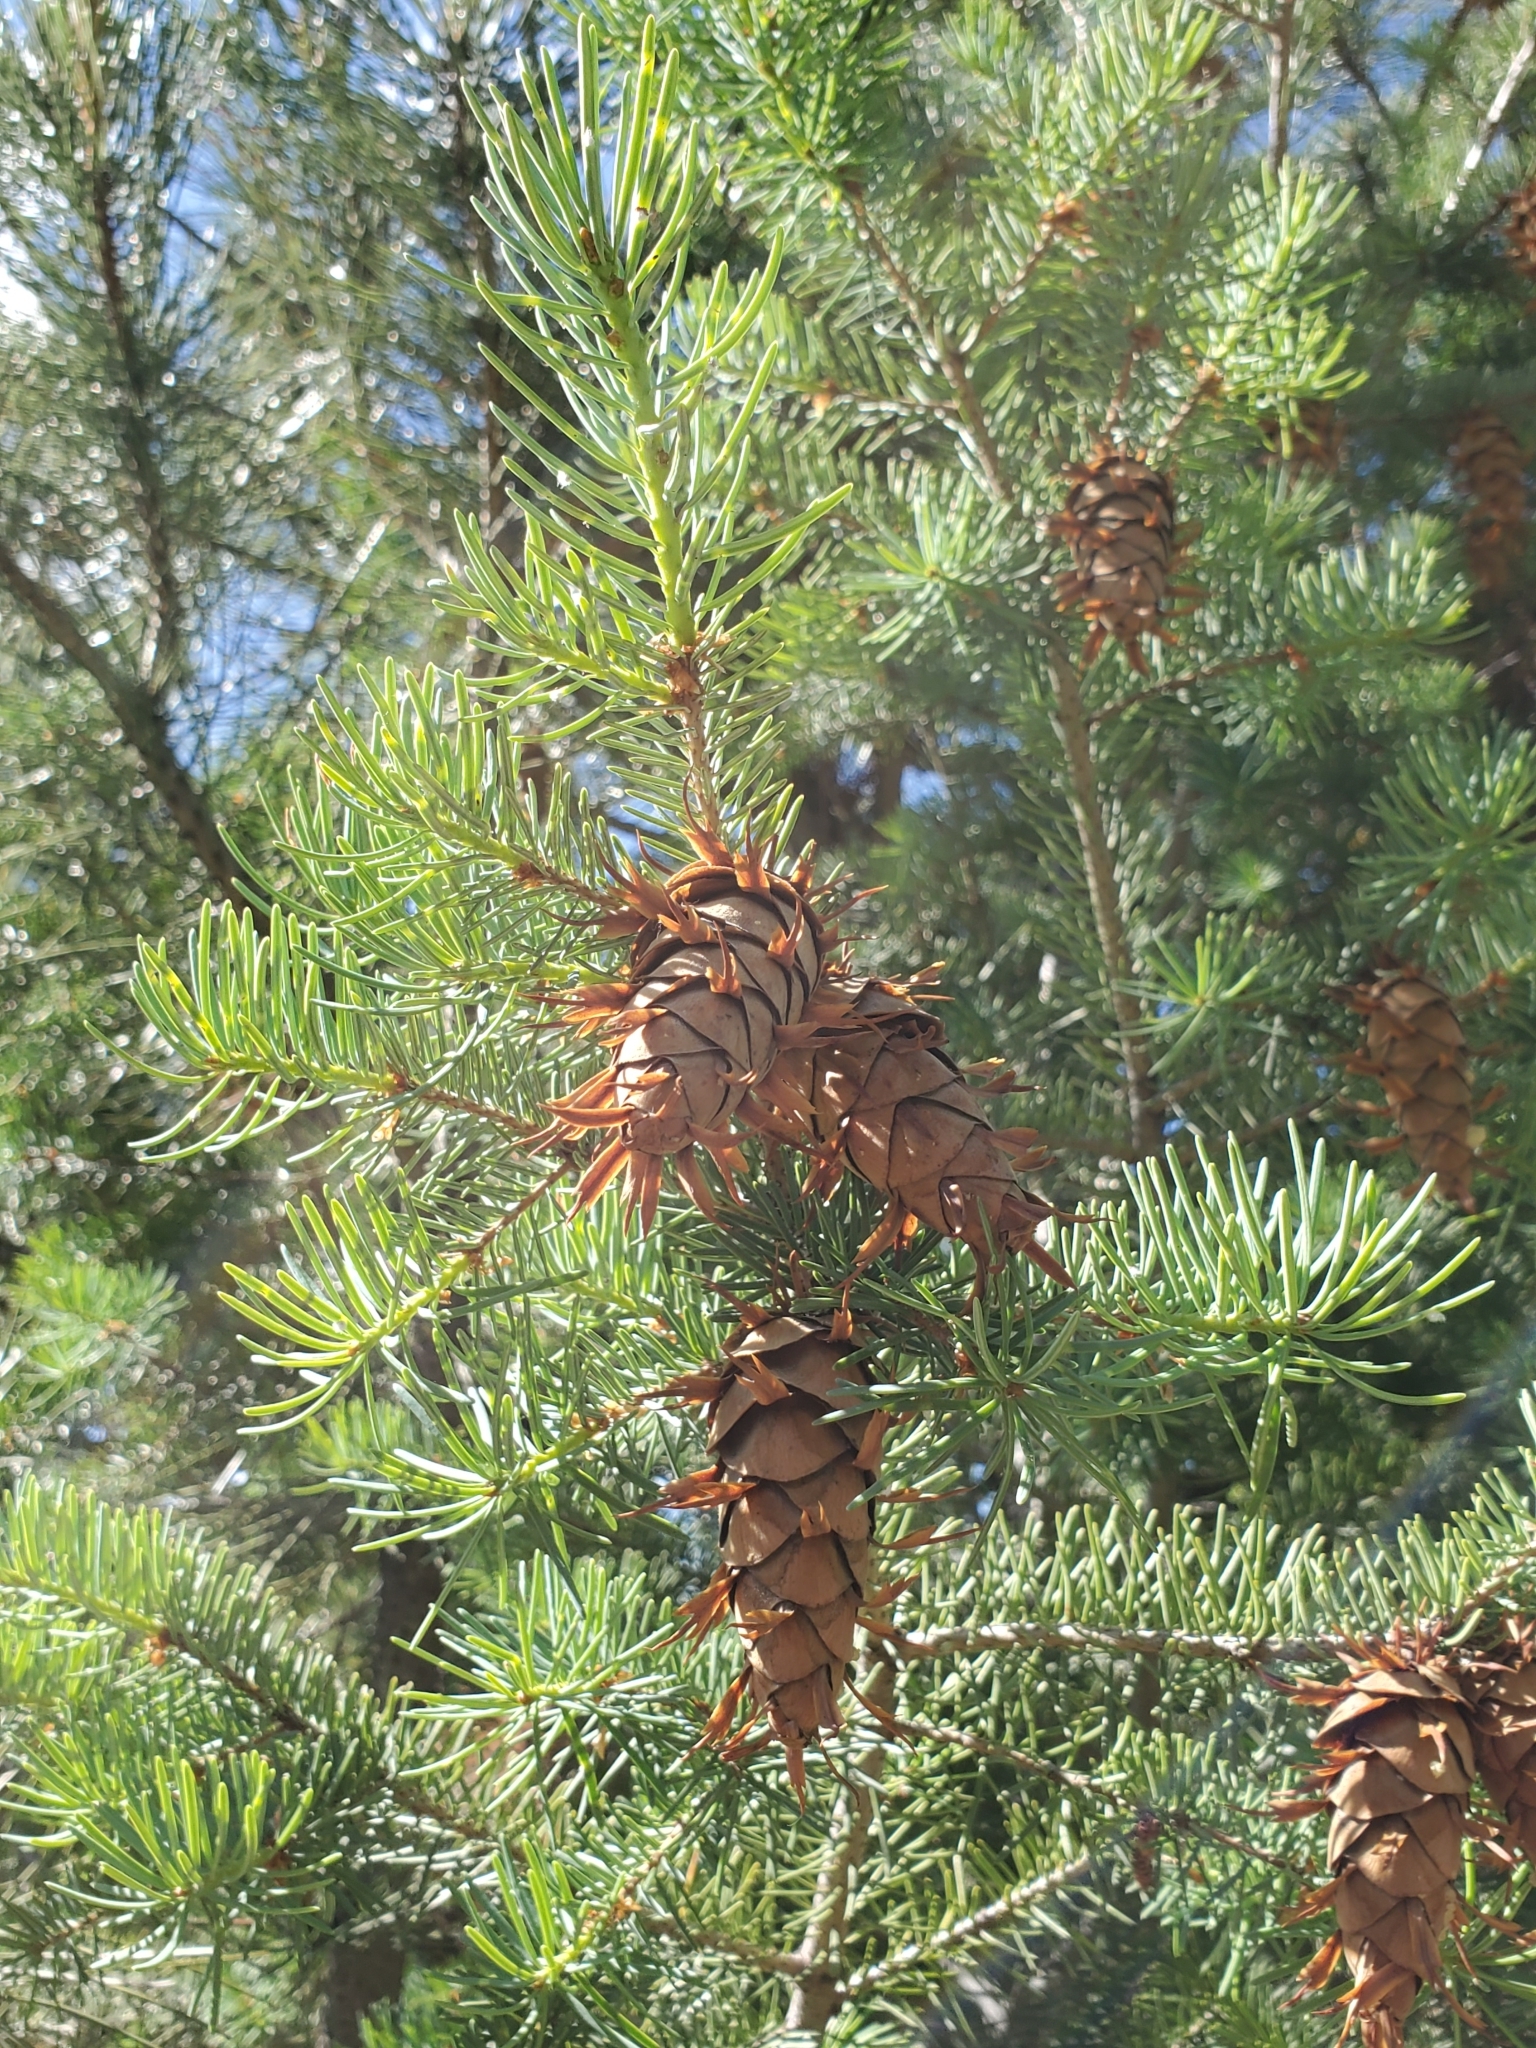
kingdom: Plantae
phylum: Tracheophyta
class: Pinopsida
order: Pinales
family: Pinaceae
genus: Pseudotsuga
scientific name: Pseudotsuga menziesii
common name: Douglas fir
